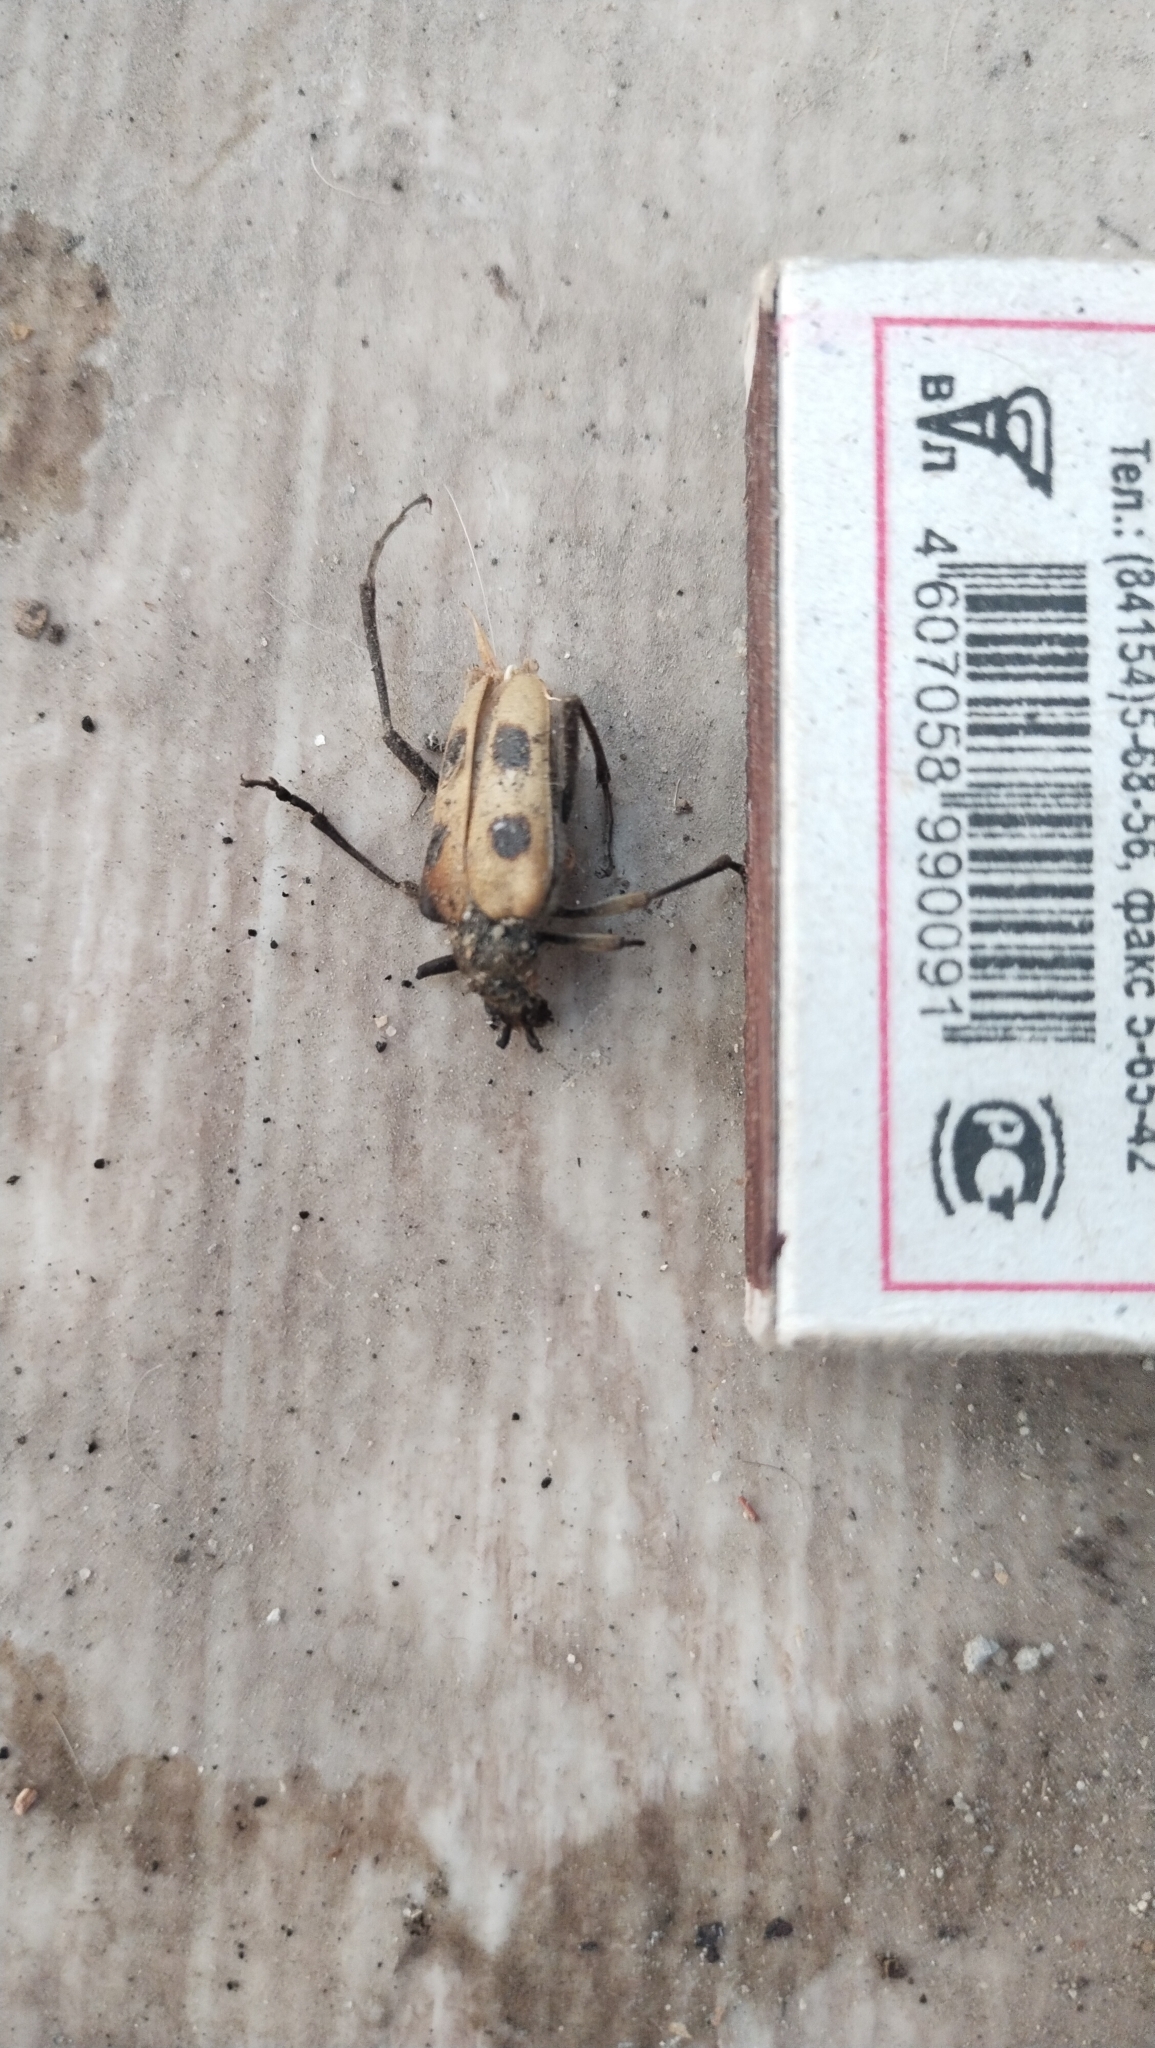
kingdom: Animalia
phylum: Arthropoda
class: Insecta
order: Coleoptera
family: Cerambycidae
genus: Pachyta
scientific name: Pachyta quadrimaculata
